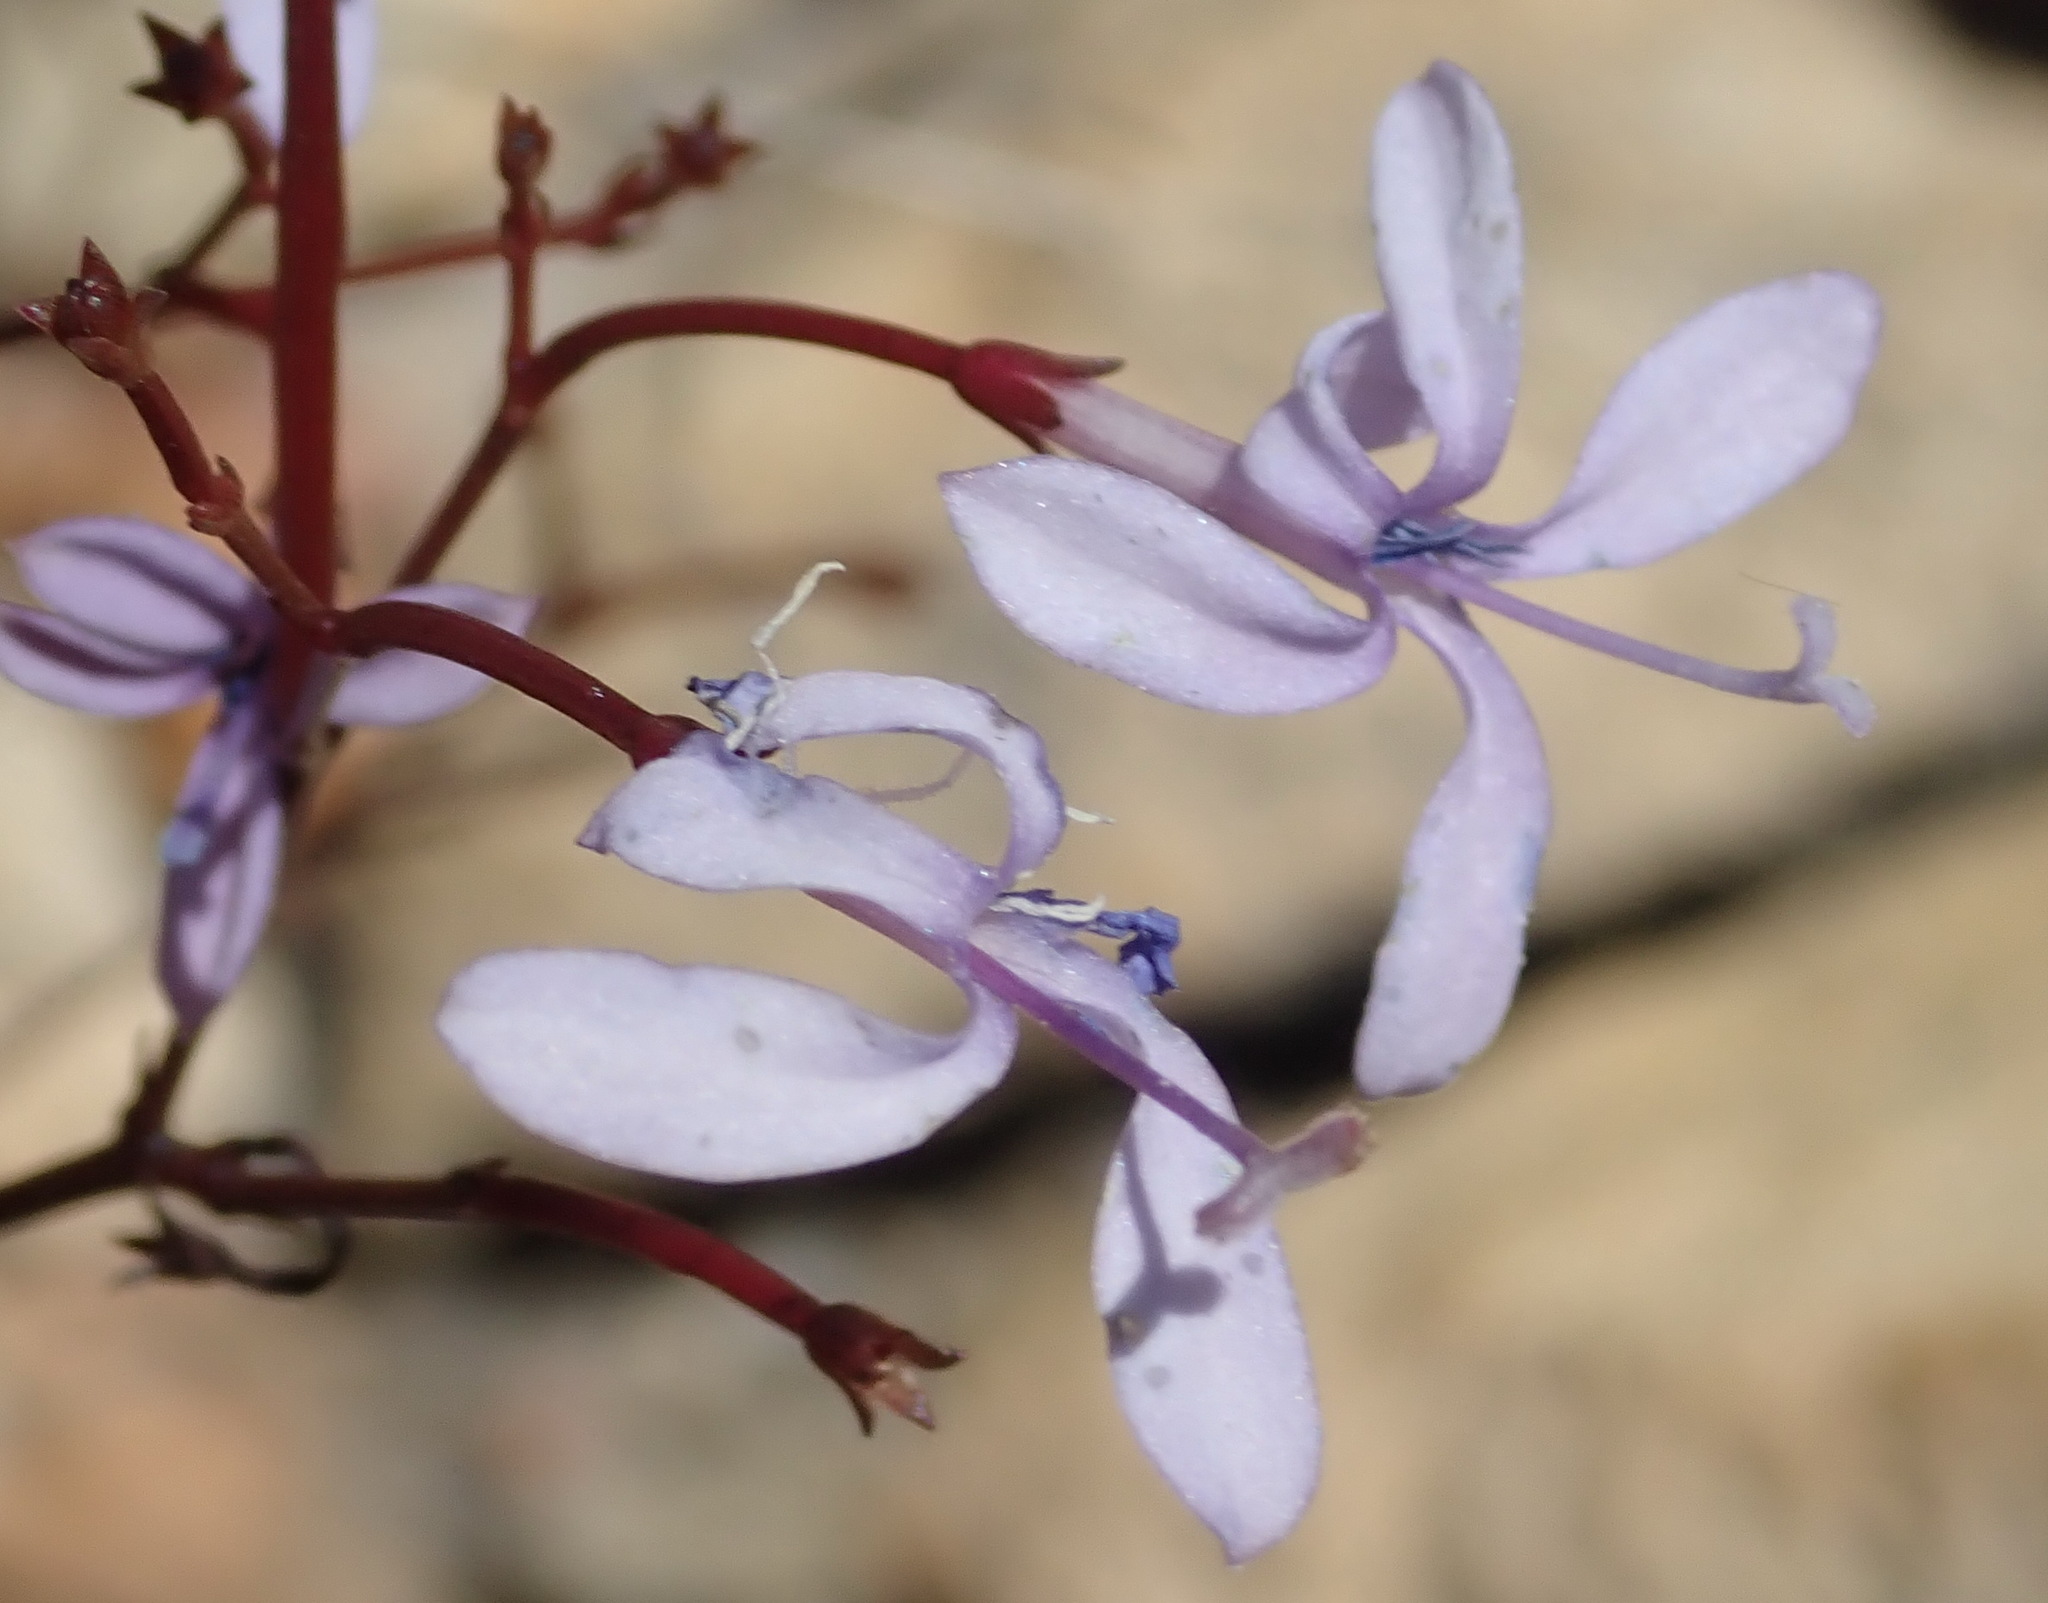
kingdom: Plantae
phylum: Tracheophyta
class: Magnoliopsida
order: Asterales
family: Campanulaceae
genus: Prismatocarpus
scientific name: Prismatocarpus diffusus
